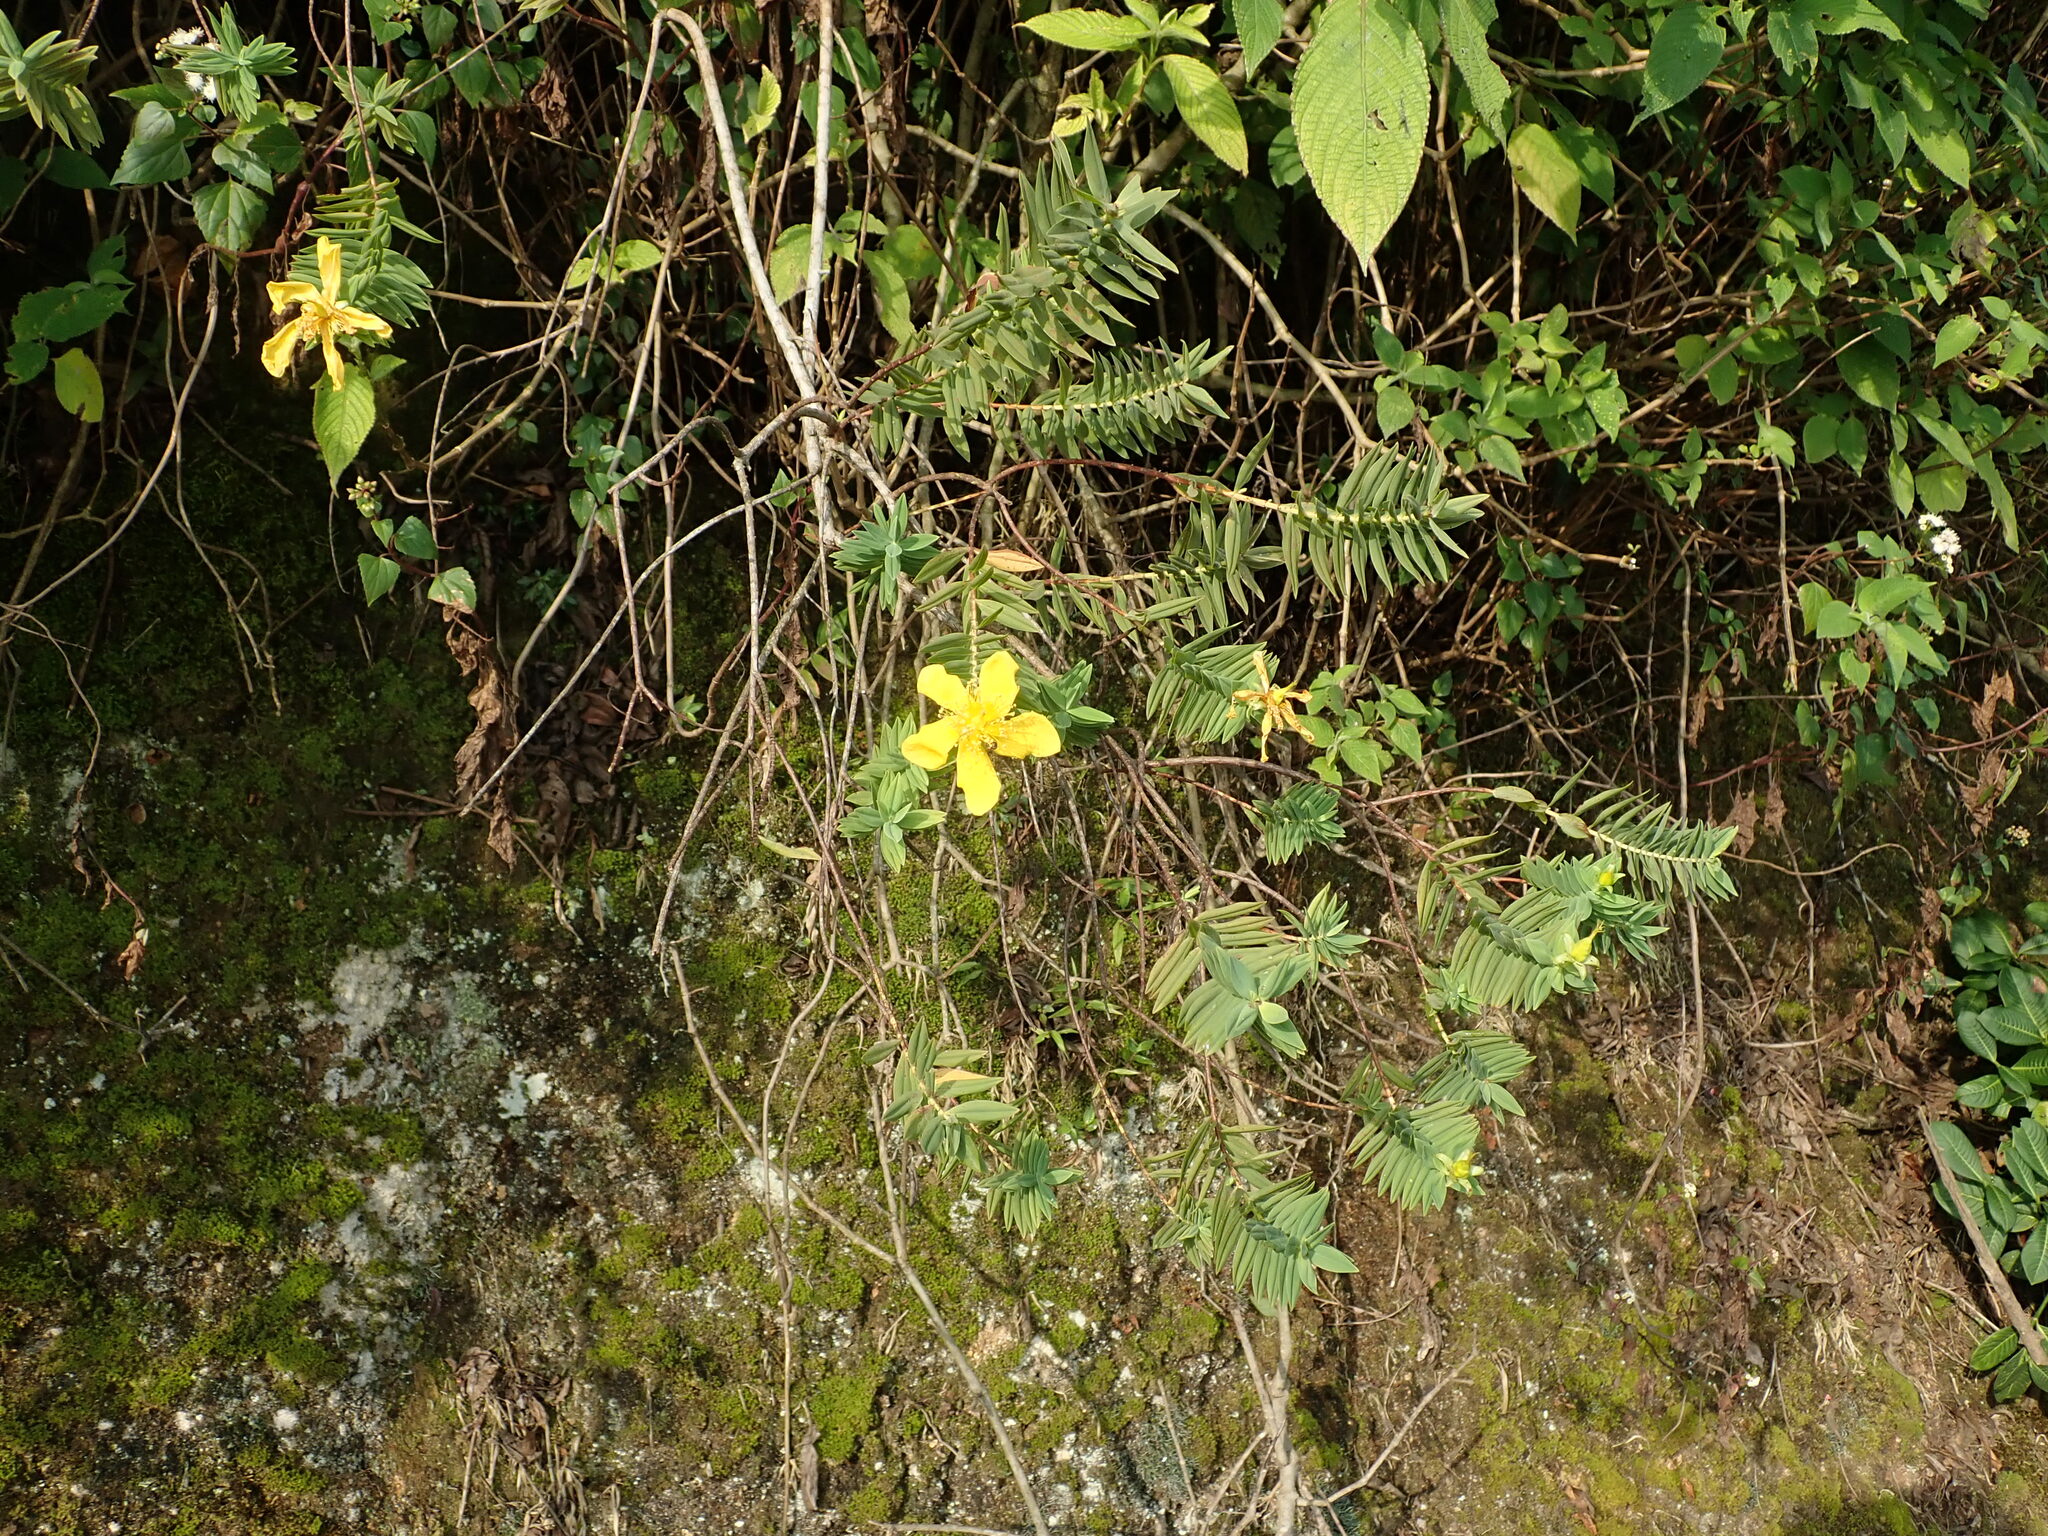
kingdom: Plantae
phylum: Tracheophyta
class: Magnoliopsida
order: Malpighiales
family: Hypericaceae
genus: Hypericum
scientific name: Hypericum mysurense
